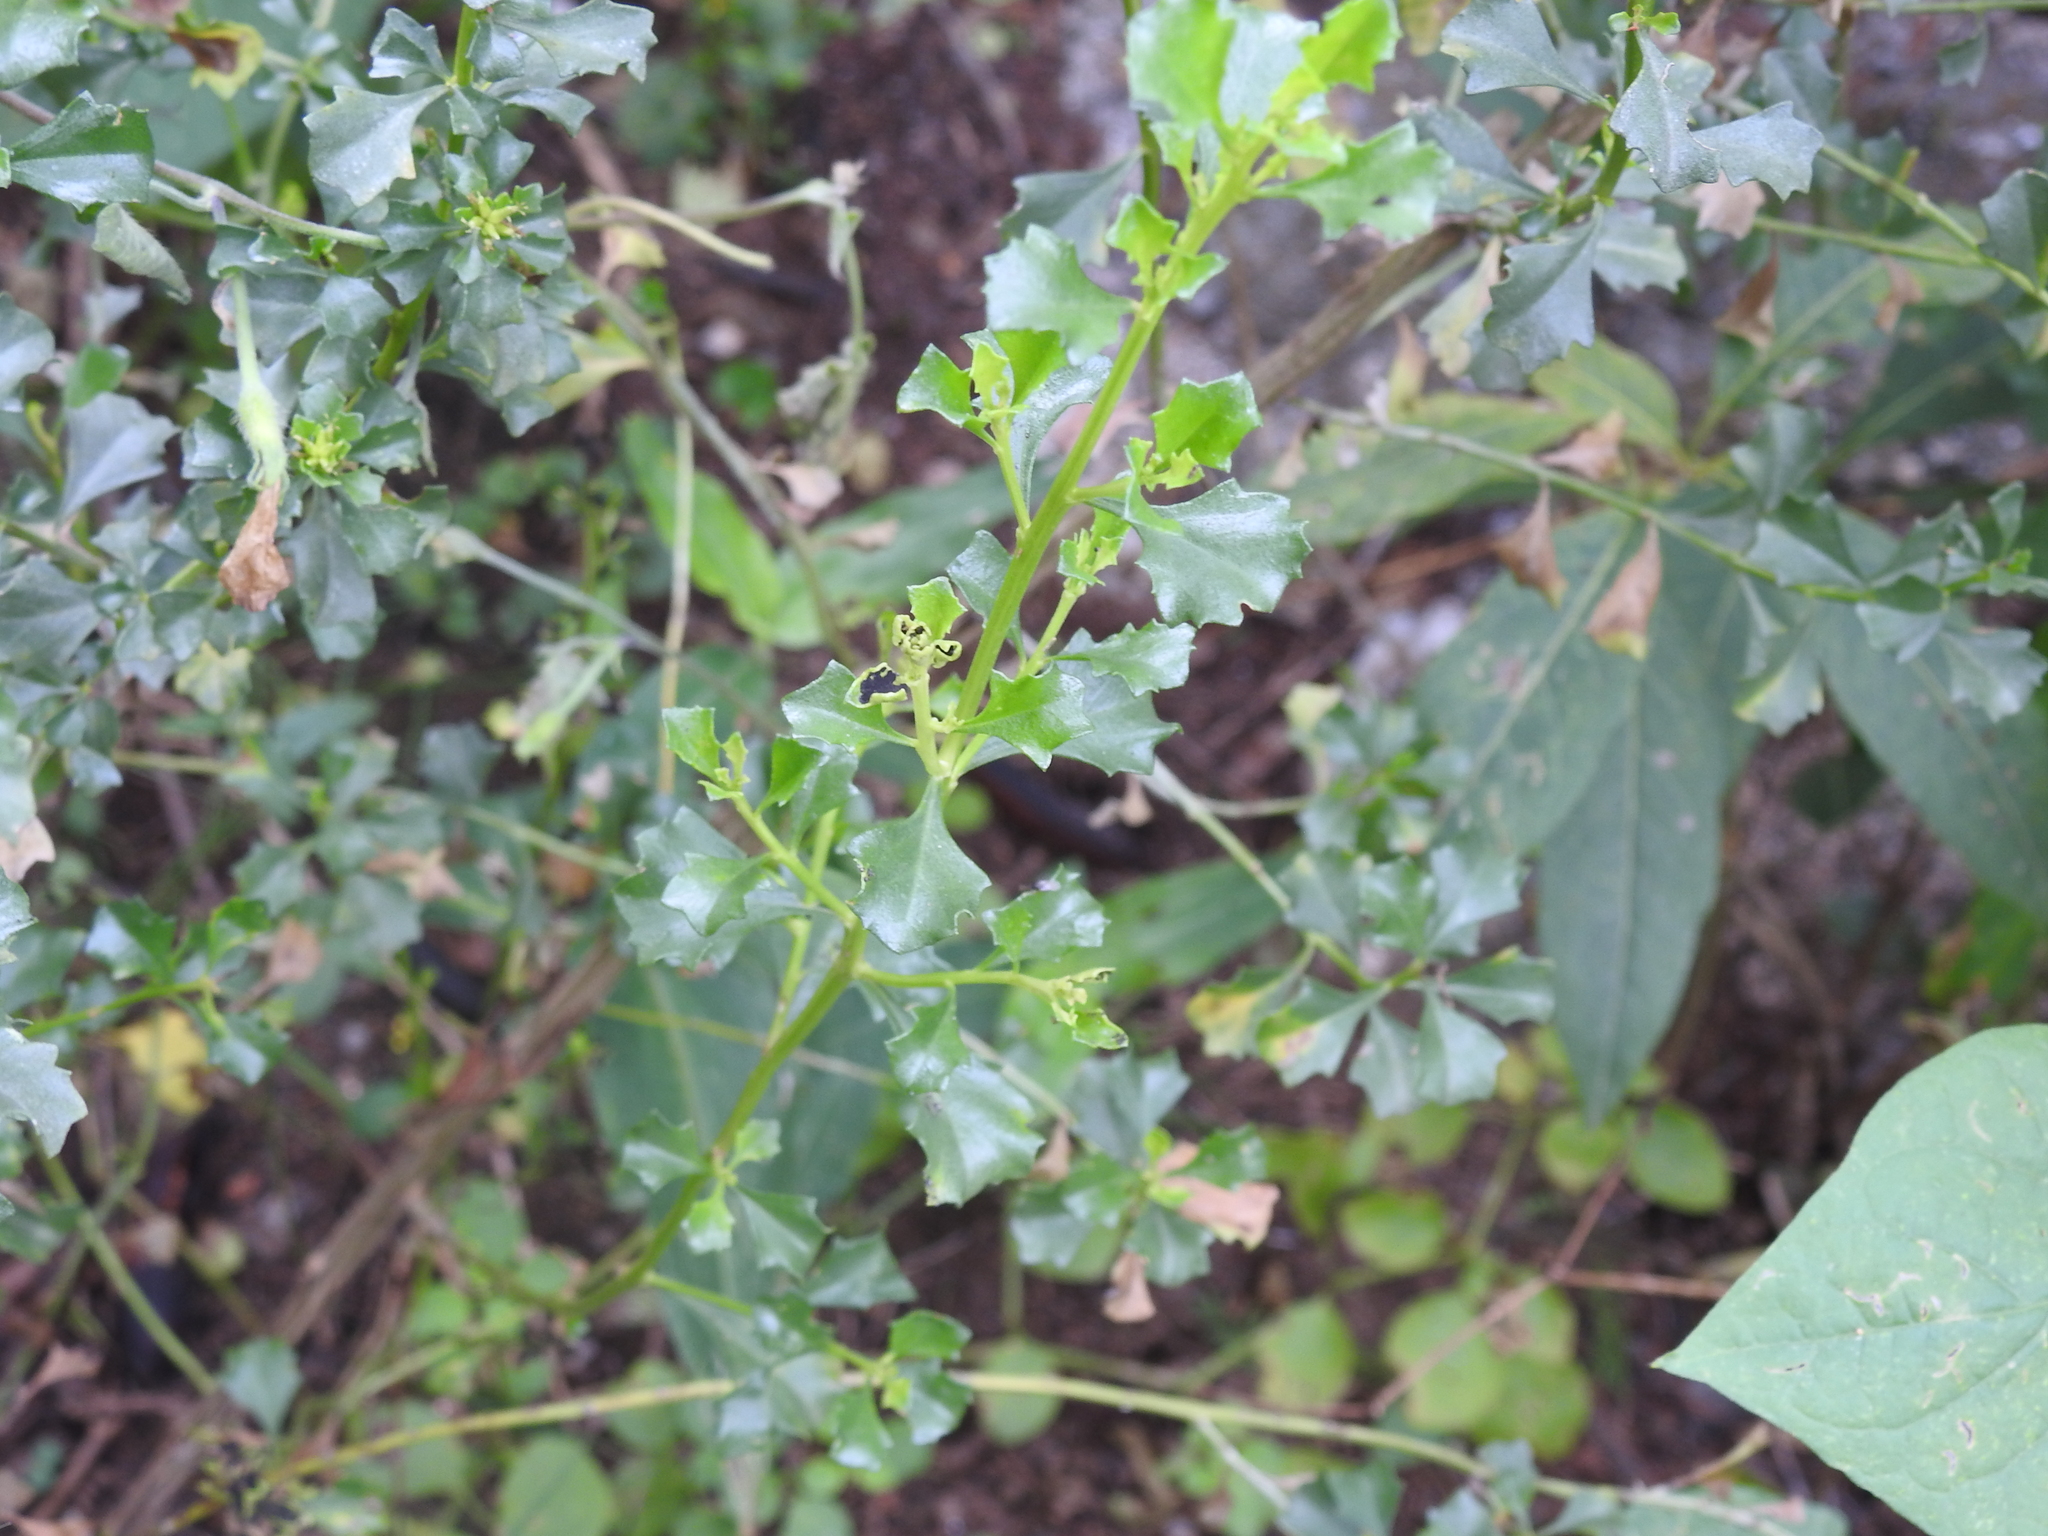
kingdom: Plantae
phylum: Tracheophyta
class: Magnoliopsida
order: Asterales
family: Asteraceae
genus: Baccharis
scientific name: Baccharis flabellata
